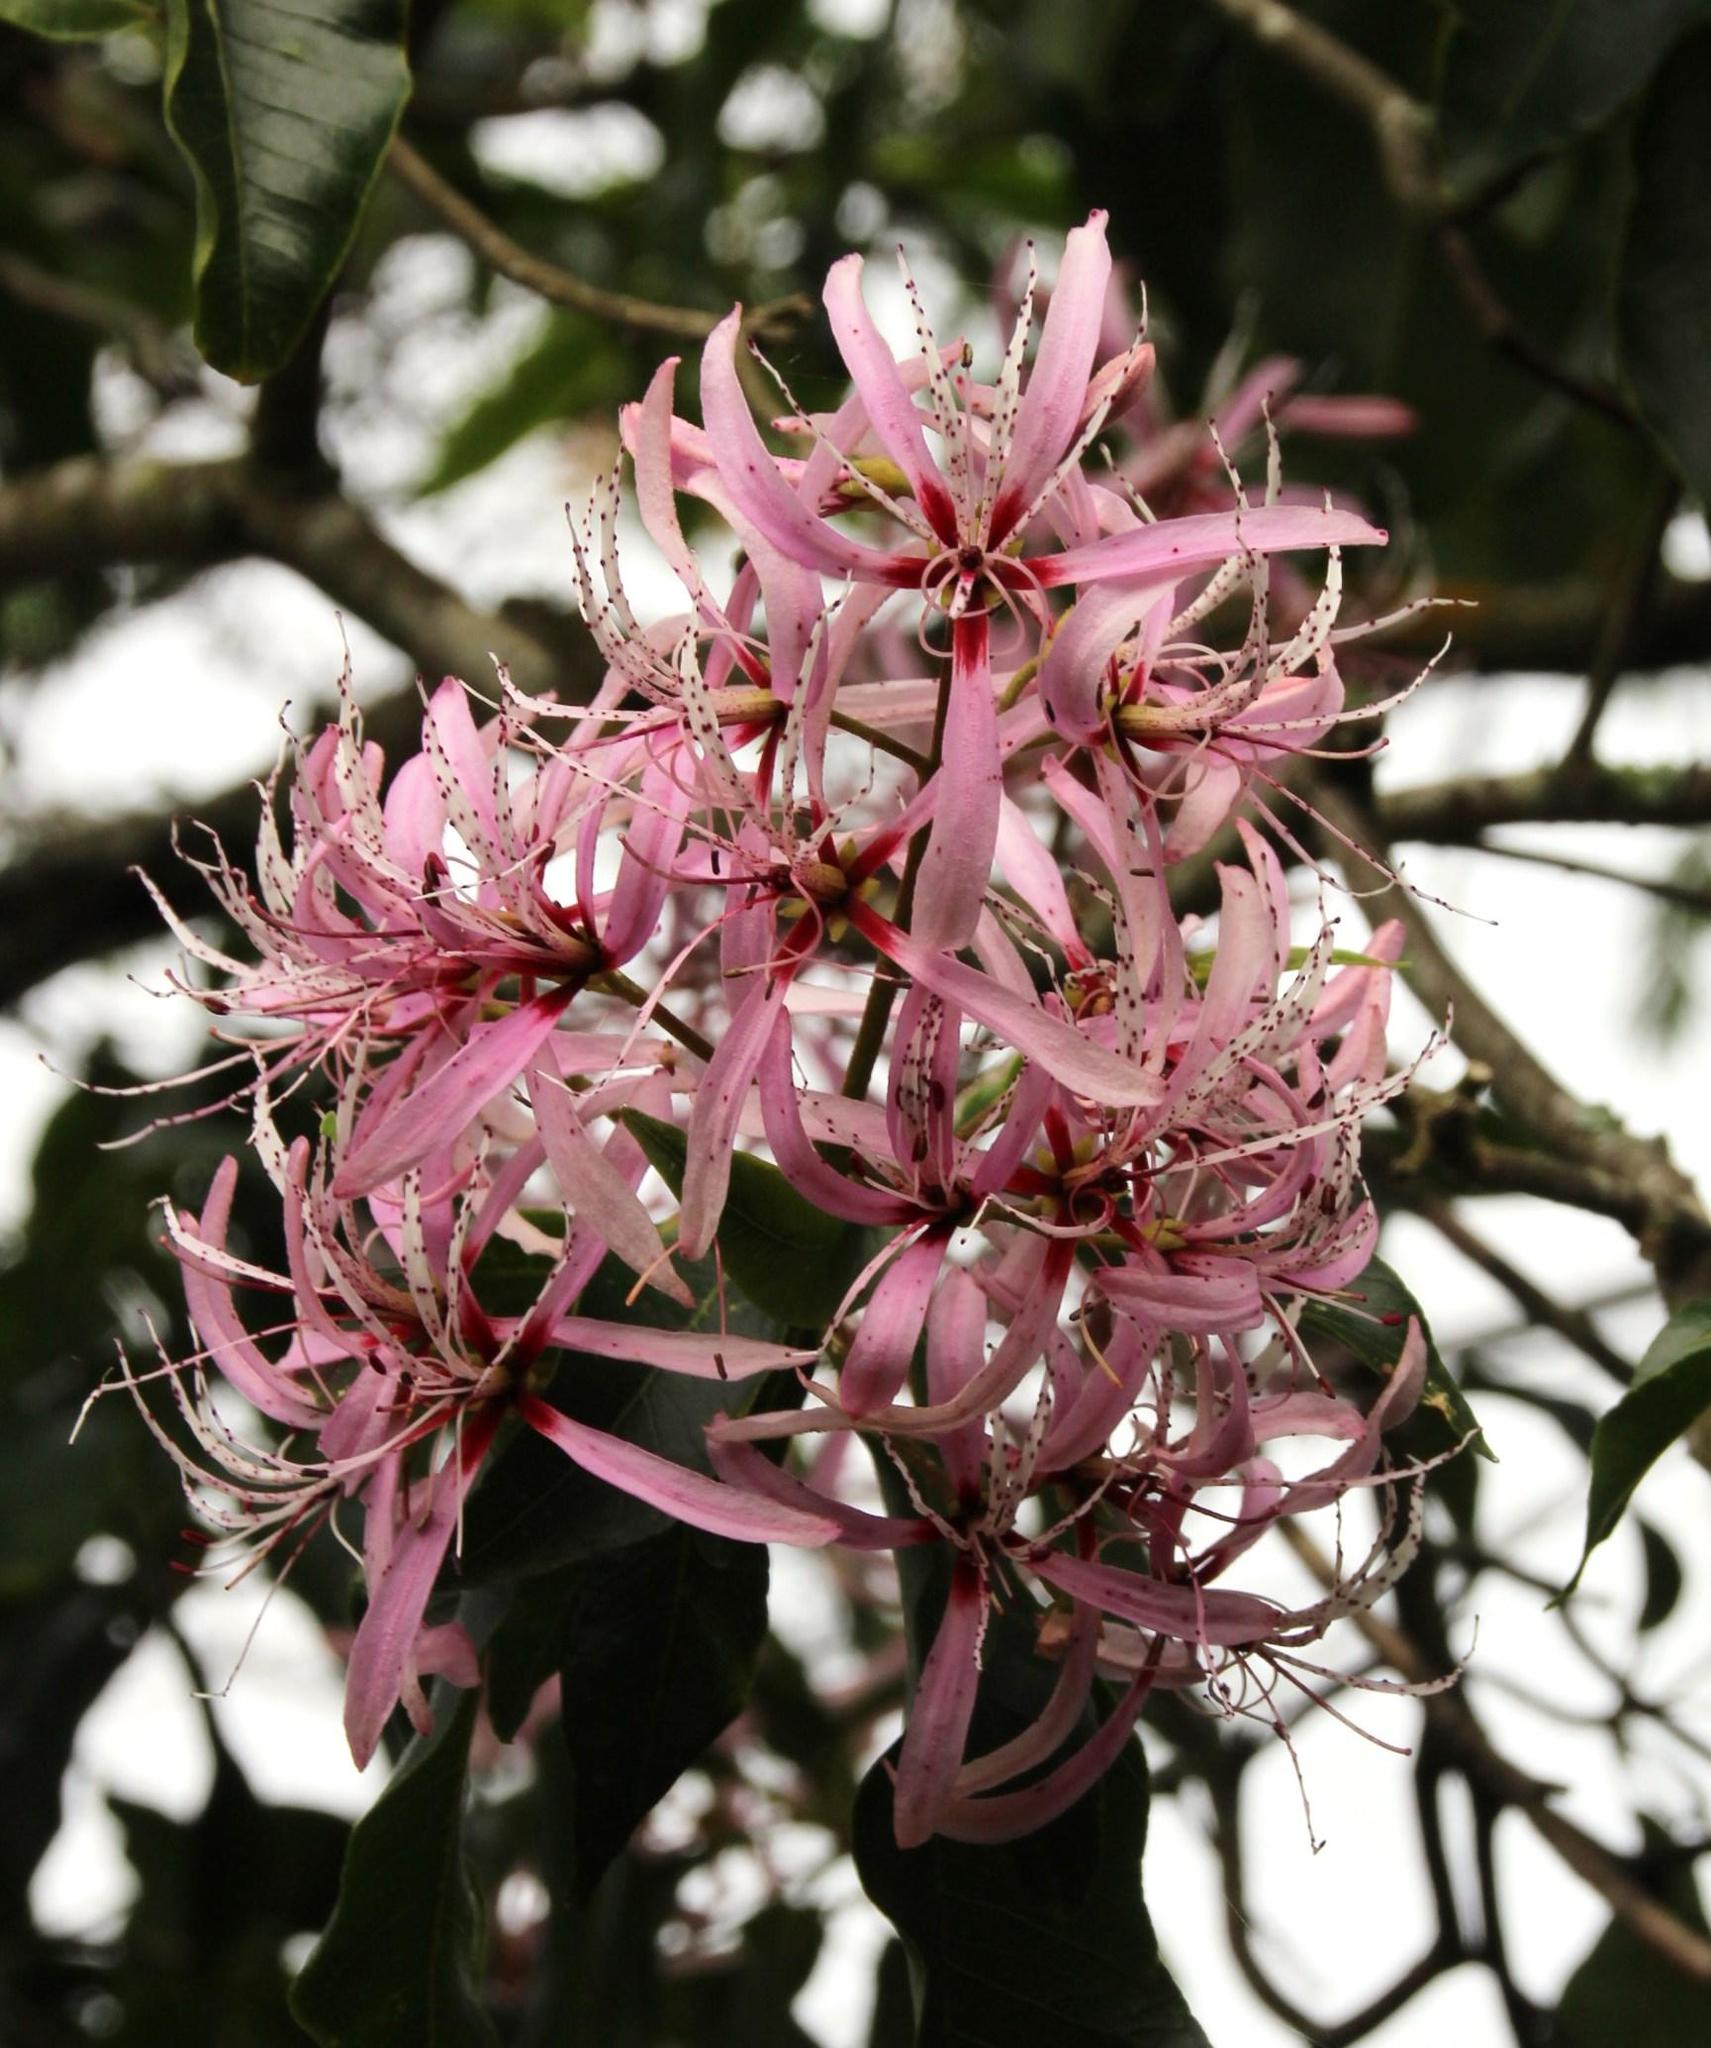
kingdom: Plantae
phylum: Tracheophyta
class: Magnoliopsida
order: Sapindales
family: Rutaceae
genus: Calodendrum
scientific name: Calodendrum capense
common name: Cape chestnut
